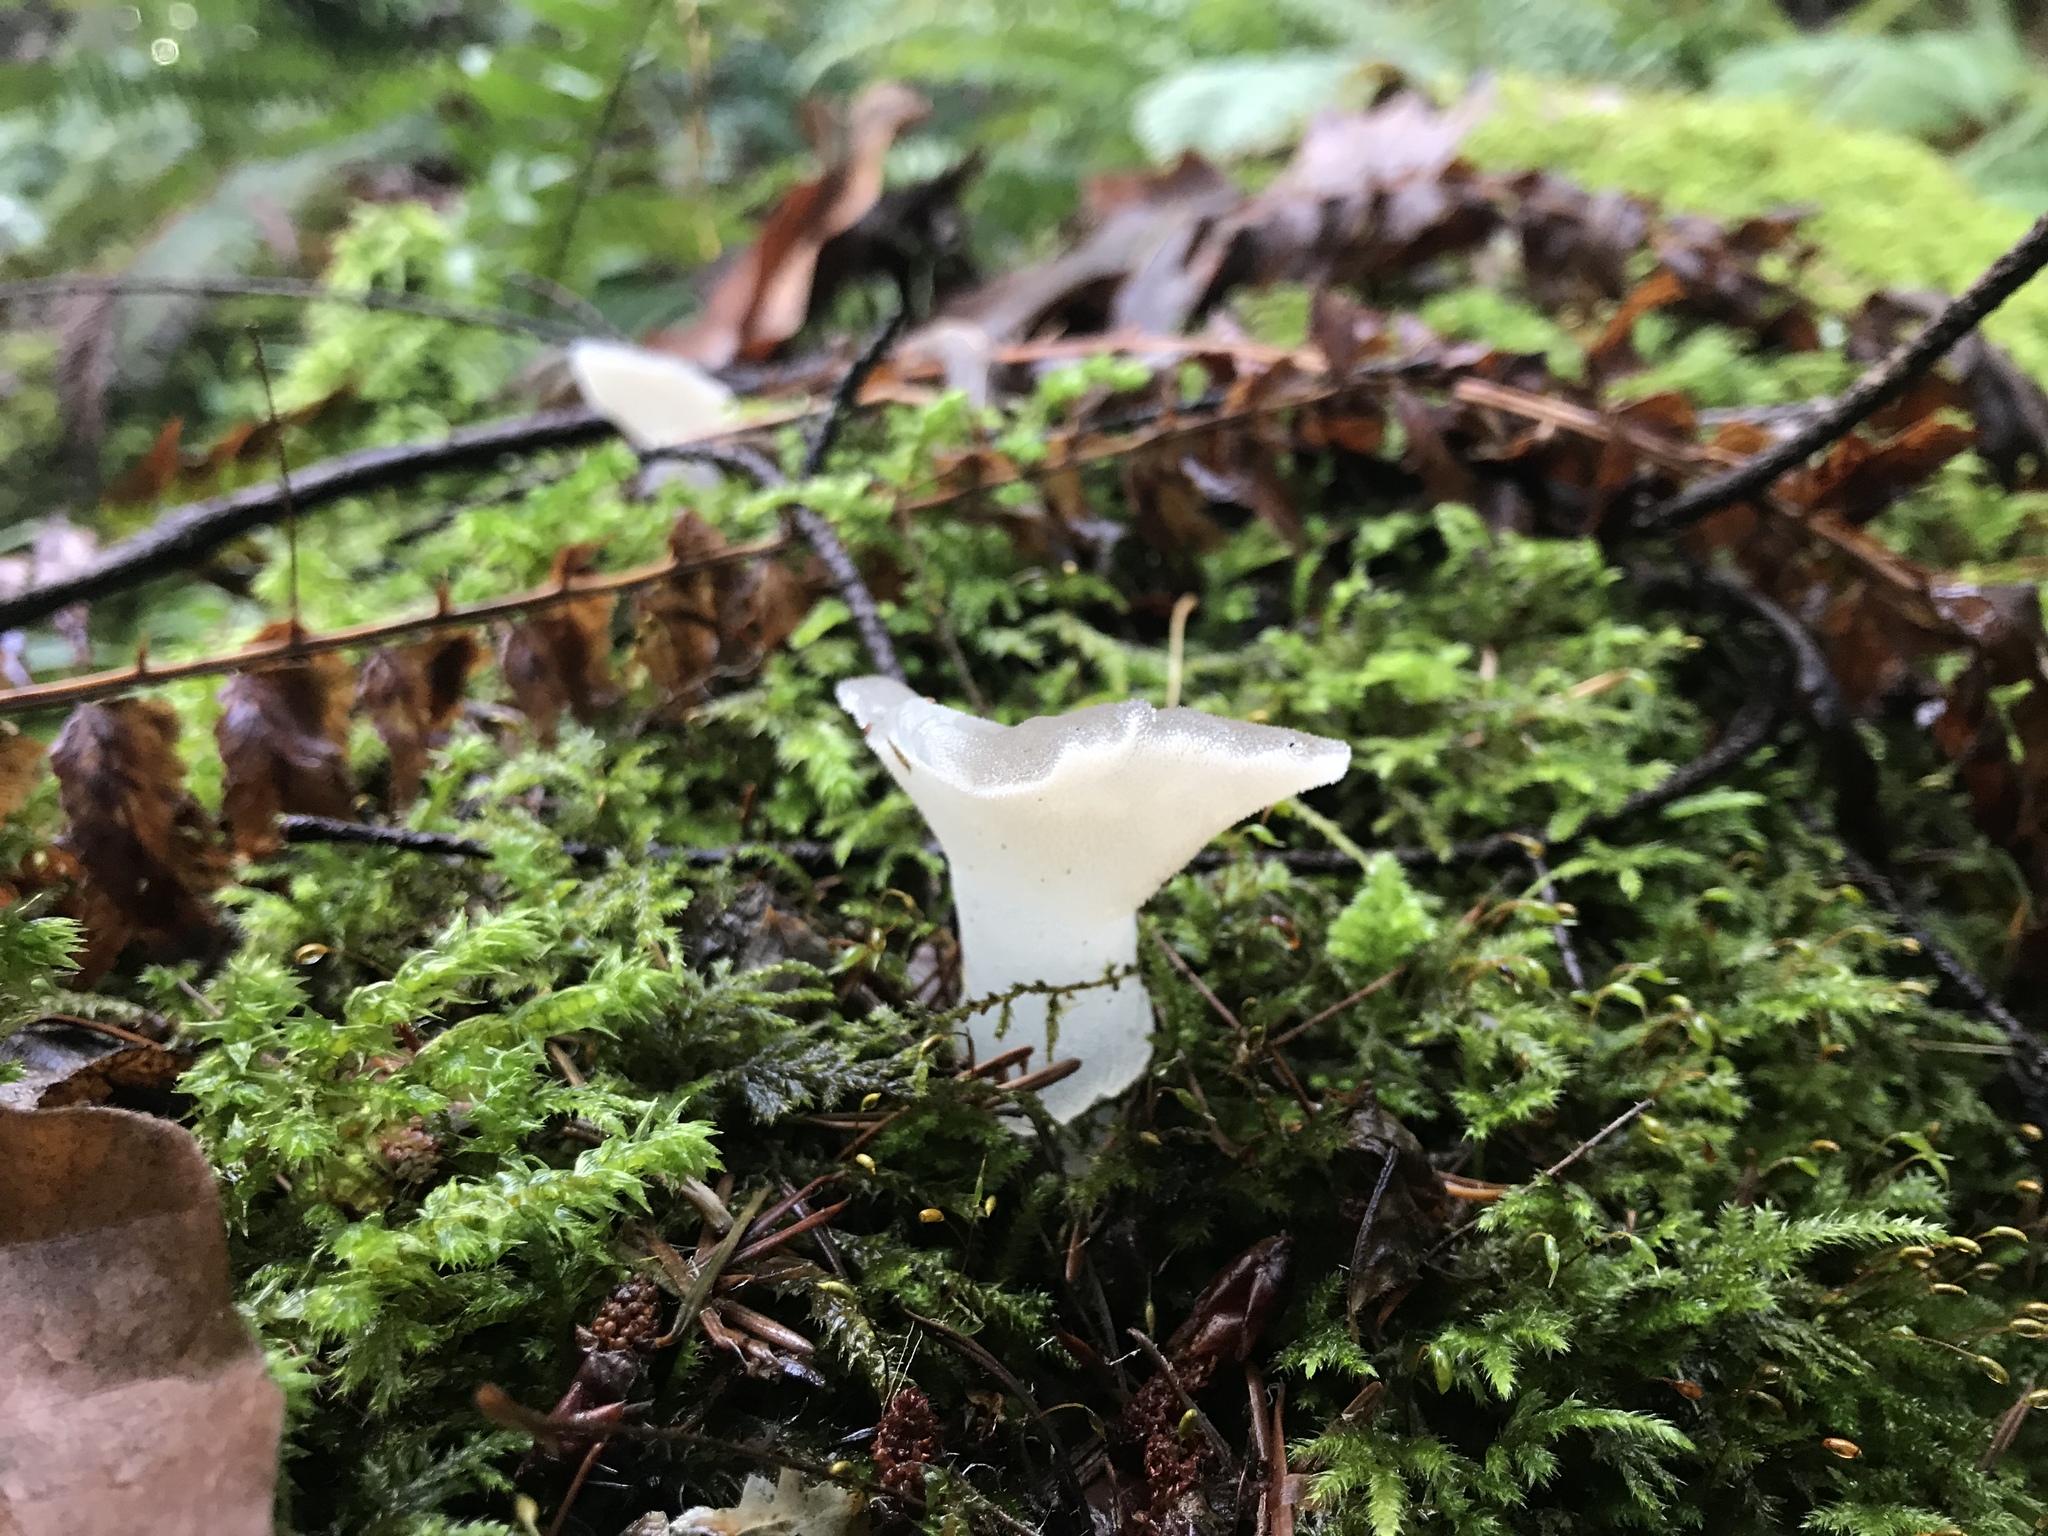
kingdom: Fungi
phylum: Basidiomycota
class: Agaricomycetes
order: Auriculariales
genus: Pseudohydnum
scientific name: Pseudohydnum gelatinosum
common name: Jelly tongue
